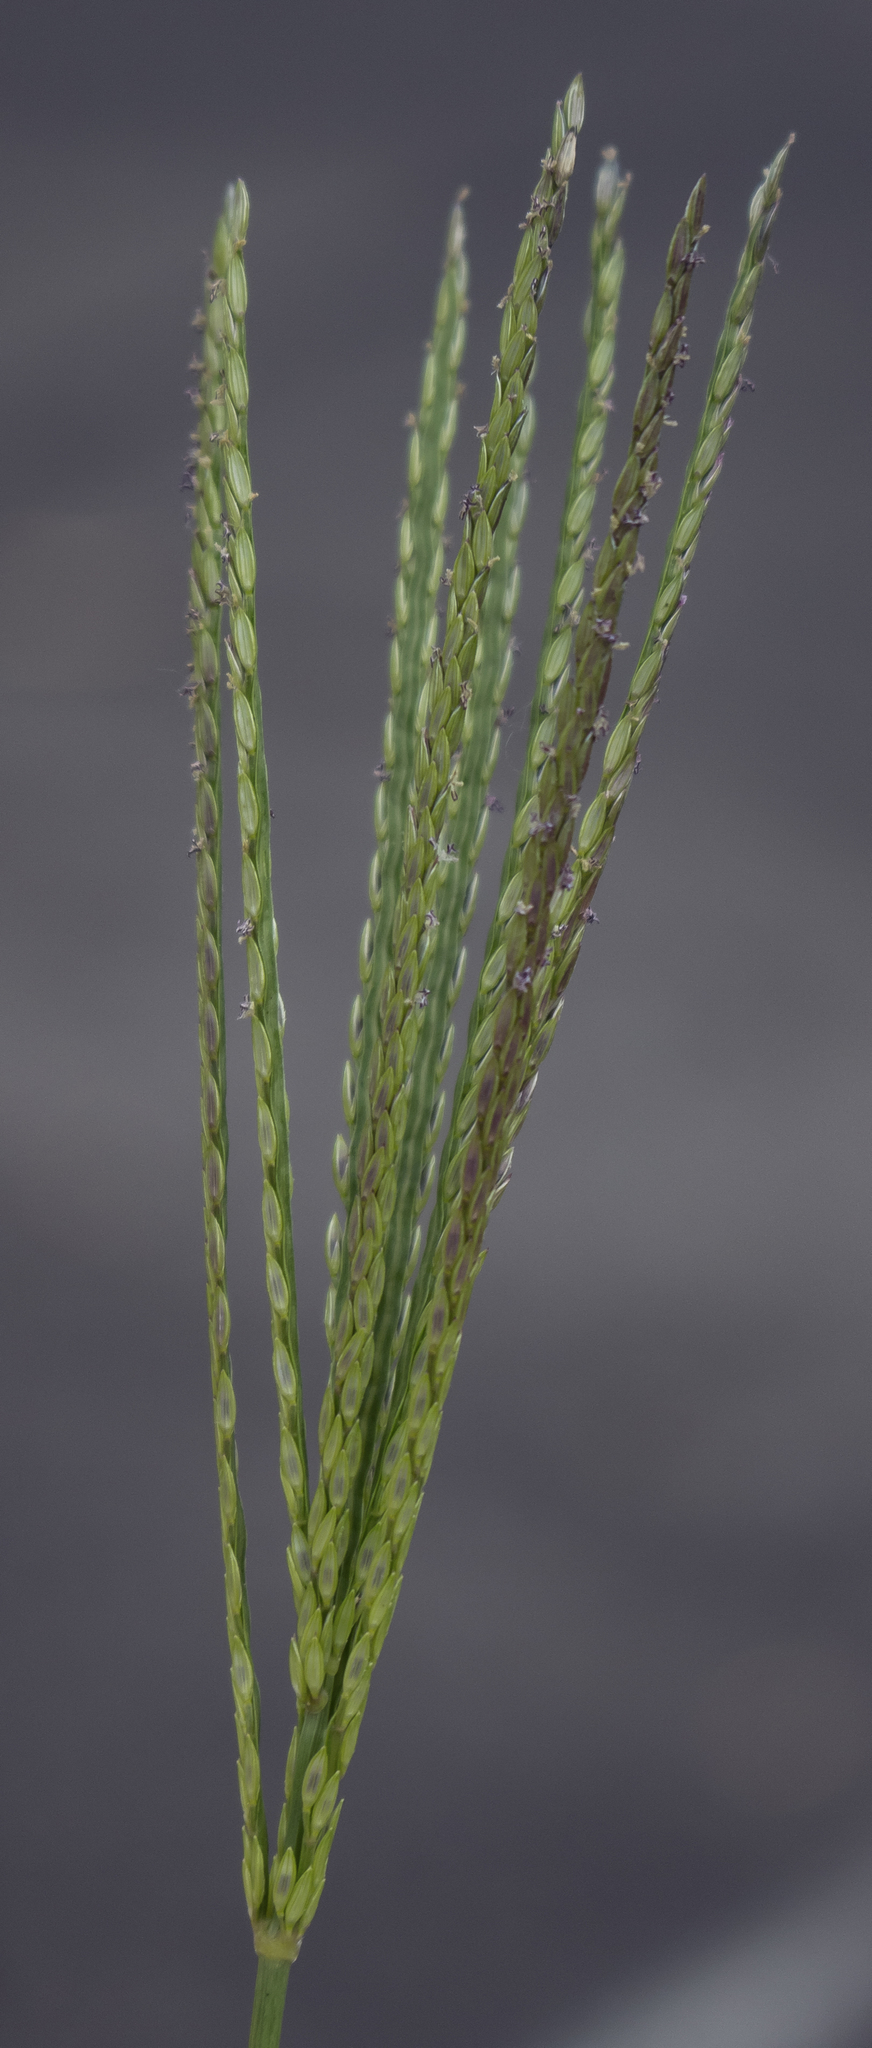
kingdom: Plantae
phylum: Tracheophyta
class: Liliopsida
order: Poales
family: Poaceae
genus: Digitaria
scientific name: Digitaria sanguinalis
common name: Hairy crabgrass
